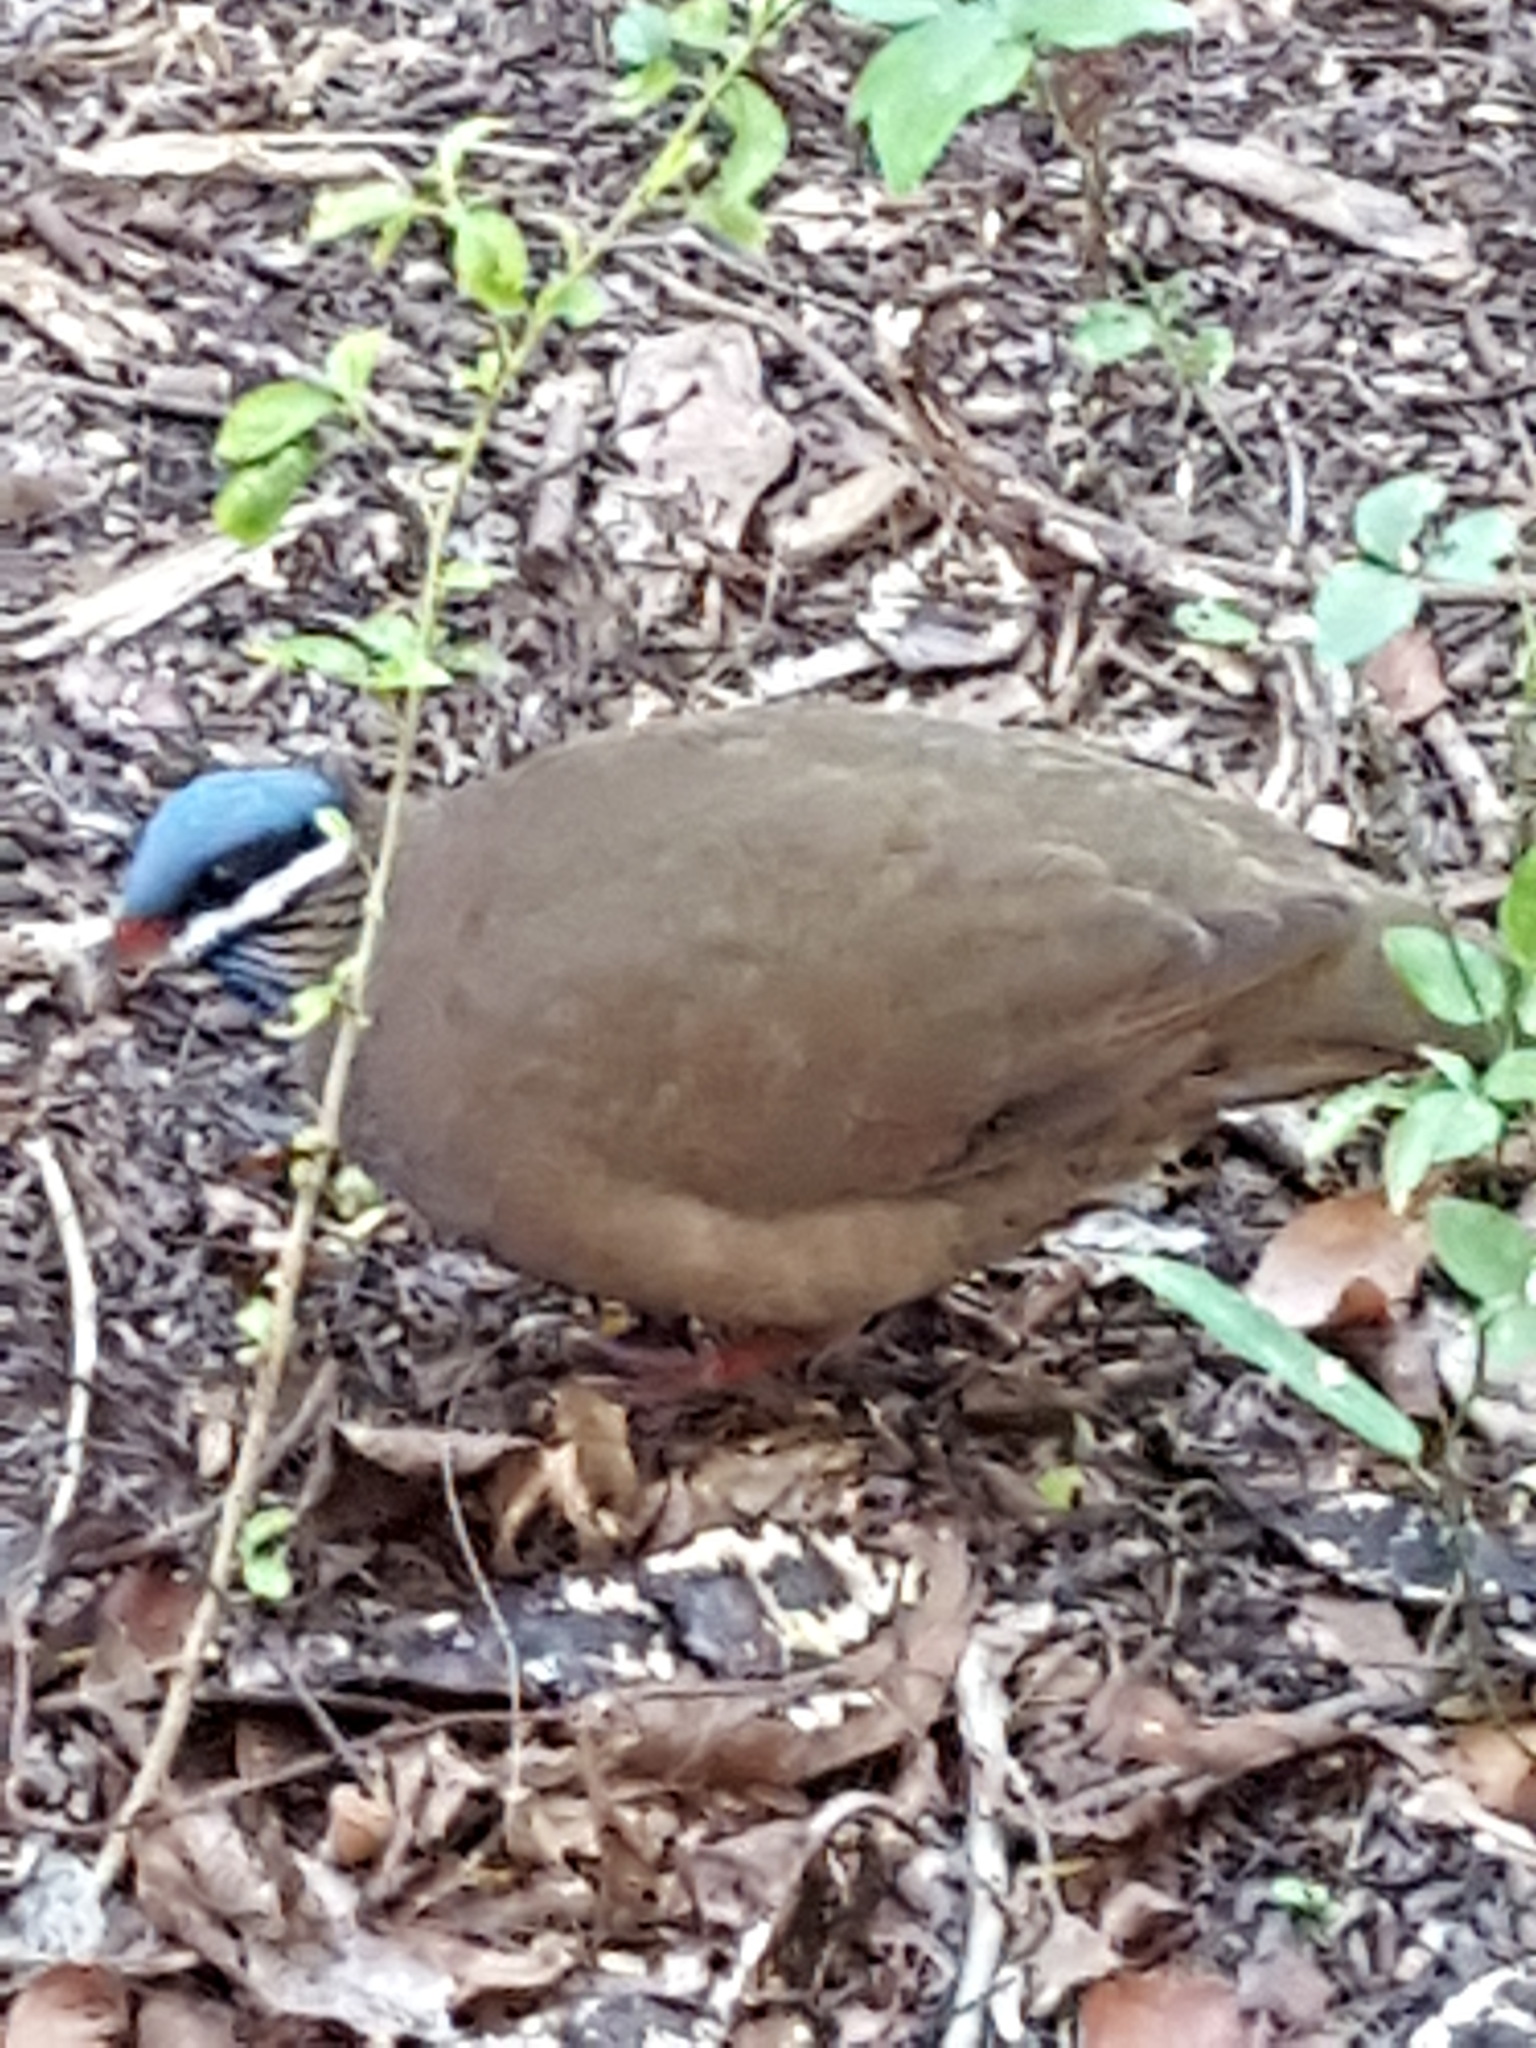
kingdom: Animalia
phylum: Chordata
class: Aves
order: Columbiformes
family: Columbidae
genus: Starnoenas
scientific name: Starnoenas cyanocephala
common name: Blue-headed quail-dove
